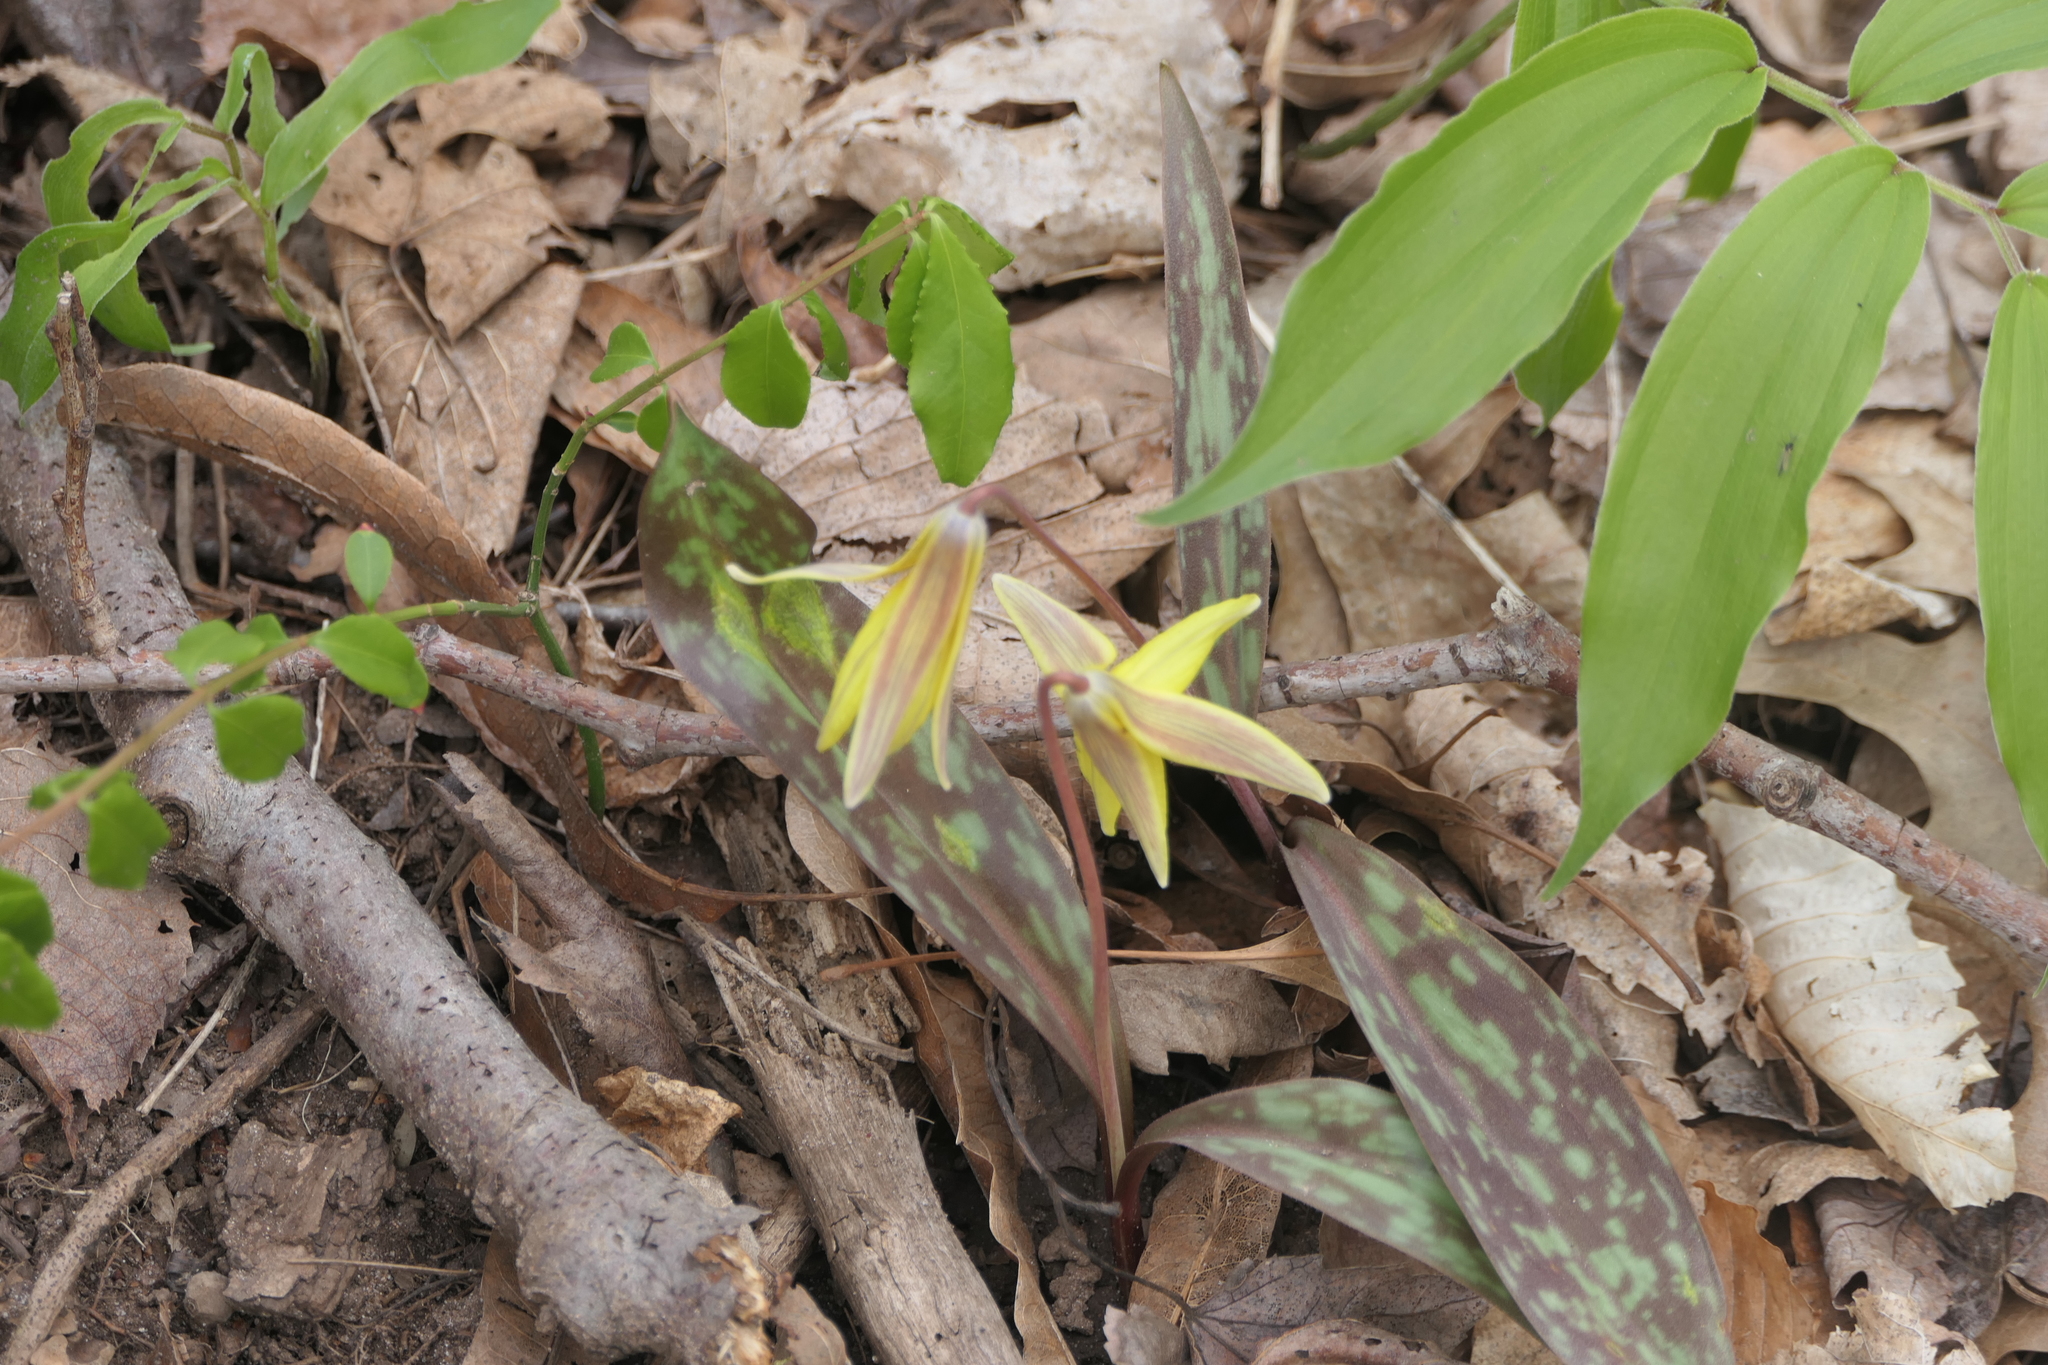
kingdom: Plantae
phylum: Tracheophyta
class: Liliopsida
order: Liliales
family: Liliaceae
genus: Erythronium
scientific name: Erythronium americanum
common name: Yellow adder's-tongue
